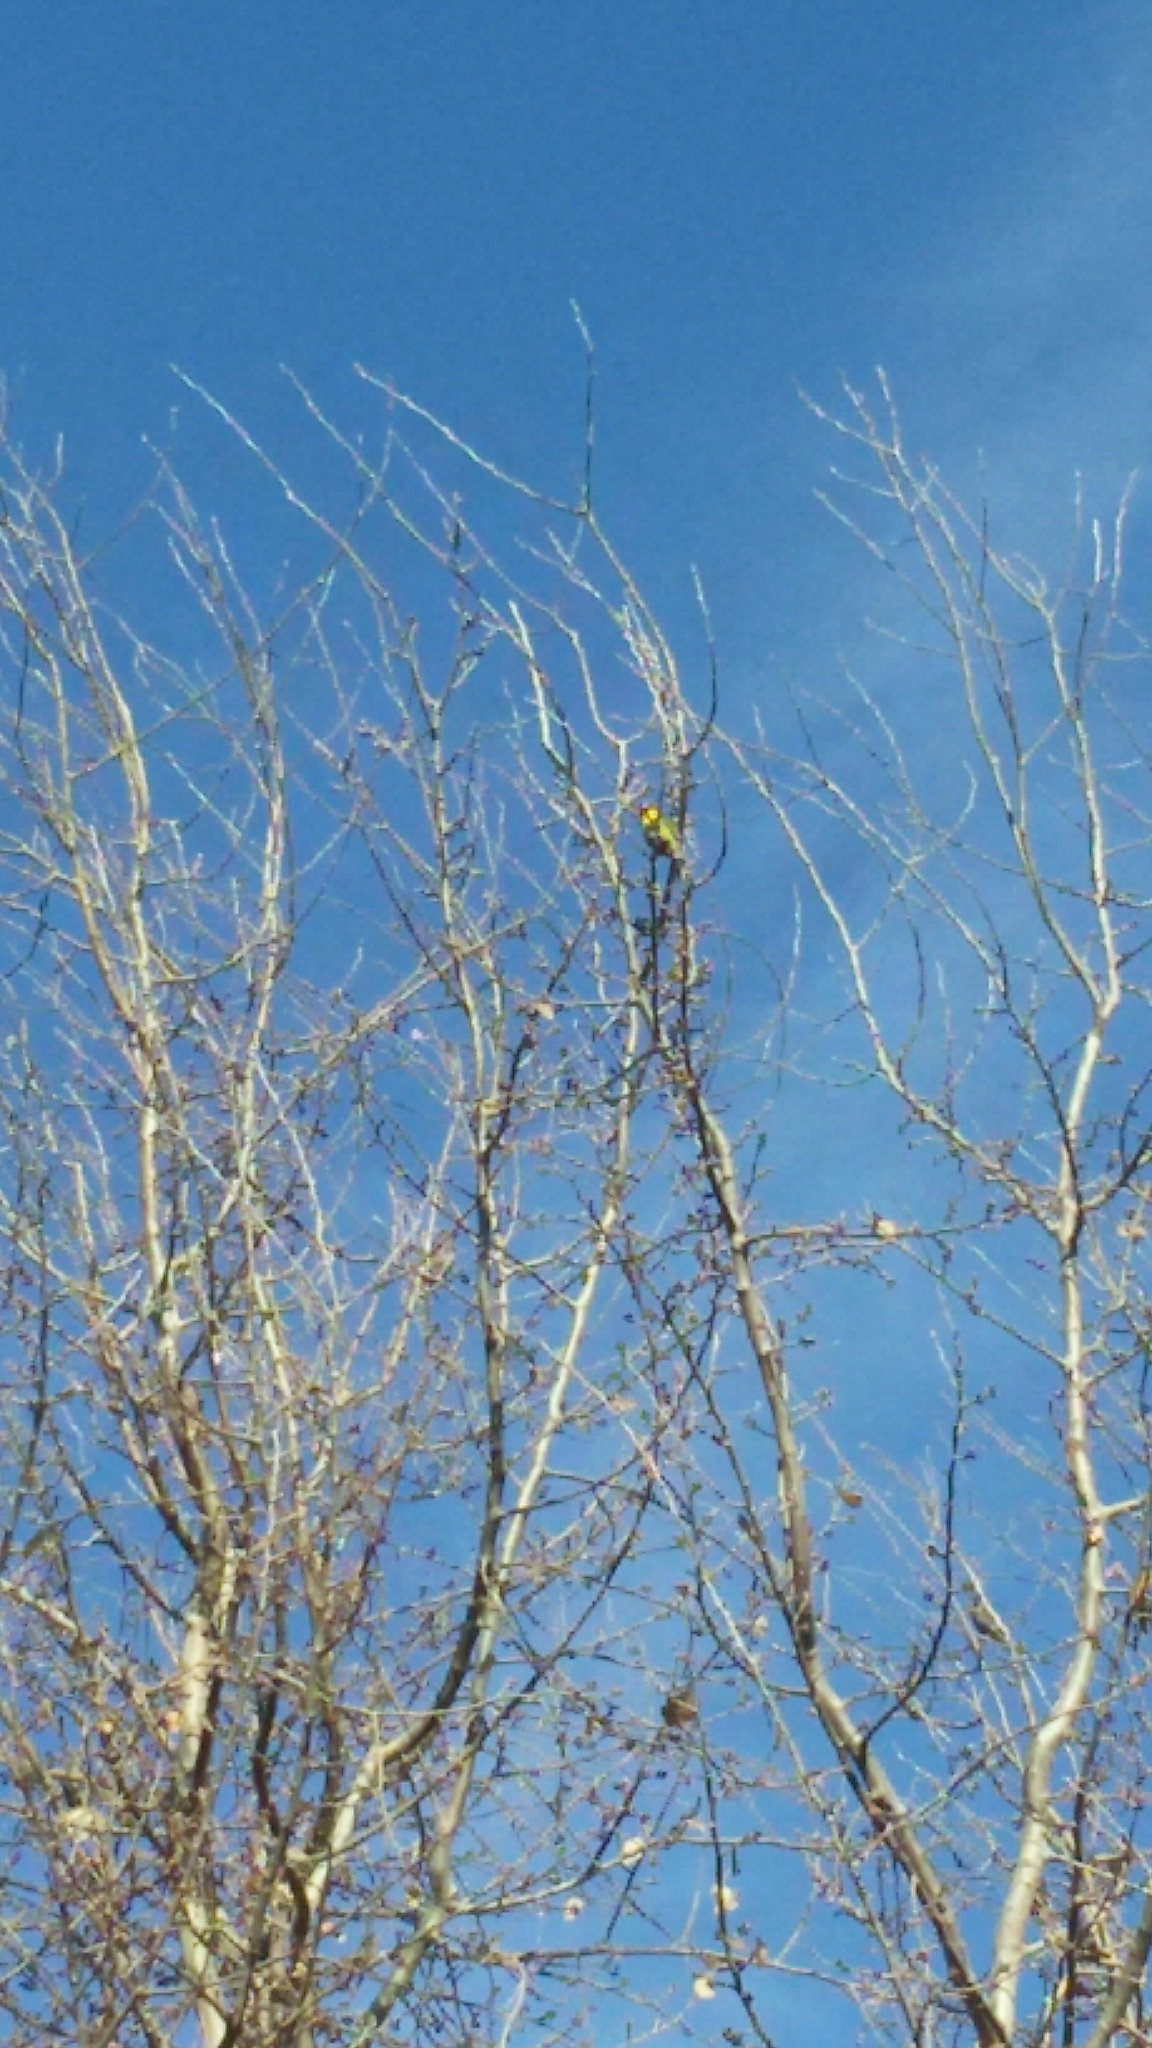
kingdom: Animalia
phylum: Chordata
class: Aves
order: Psittaciformes
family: Psittacidae
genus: Agapornis
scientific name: Agapornis personatus
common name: Yellow-collared lovebird
